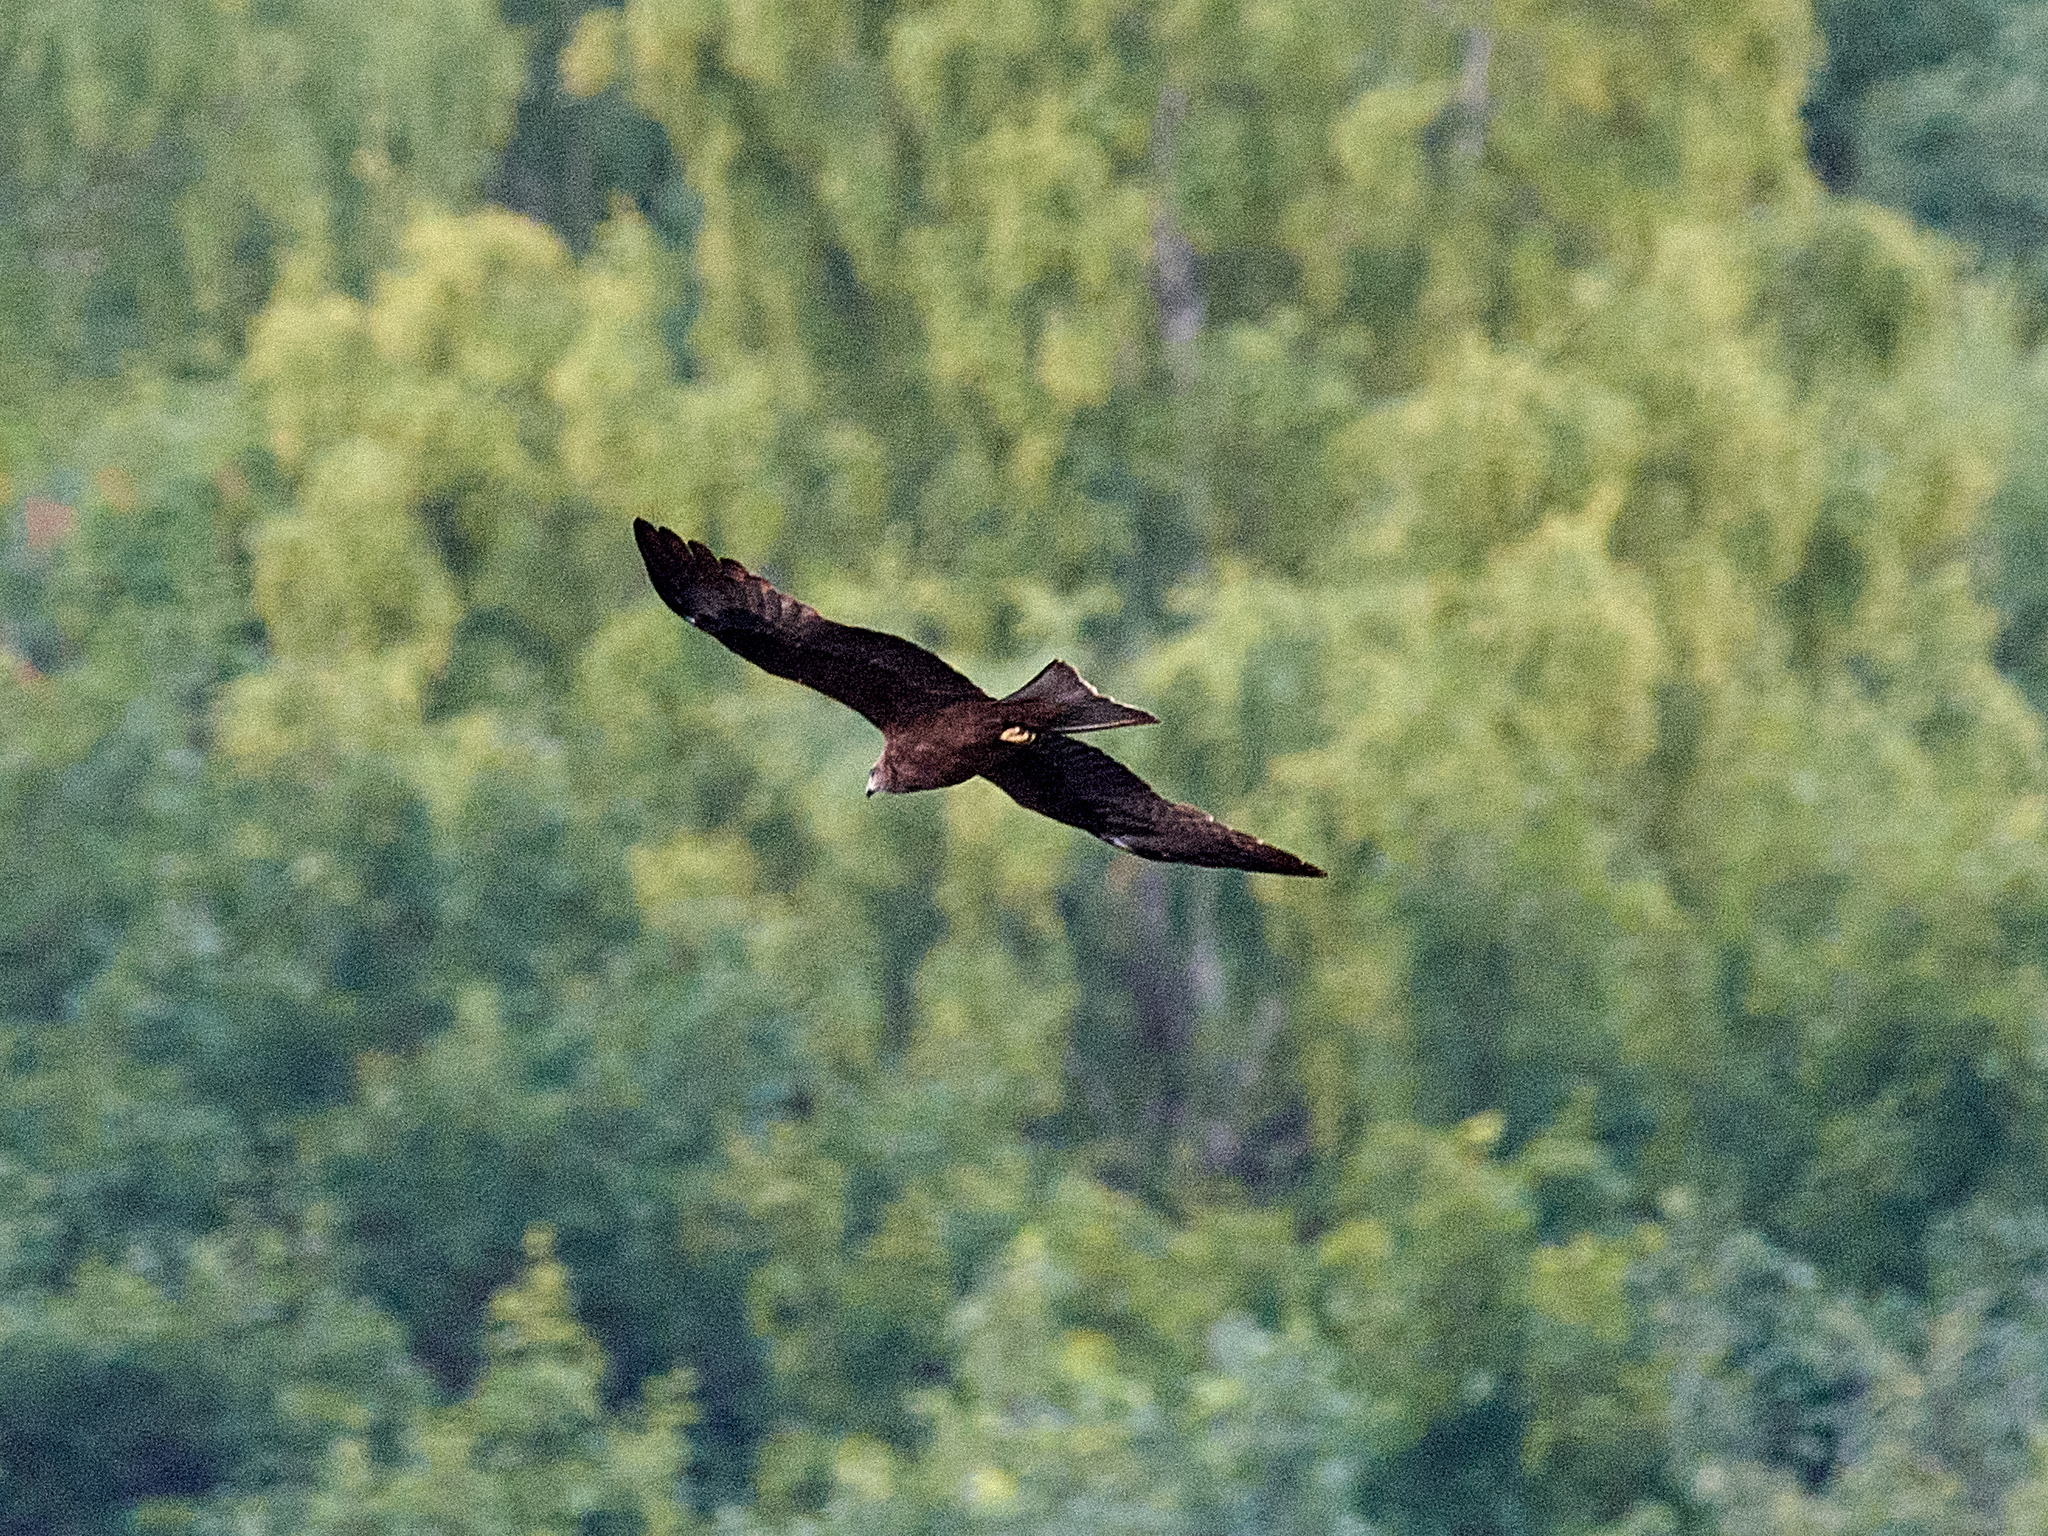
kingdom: Animalia
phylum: Chordata
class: Aves
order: Accipitriformes
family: Accipitridae
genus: Milvus
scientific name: Milvus migrans
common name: Black kite
